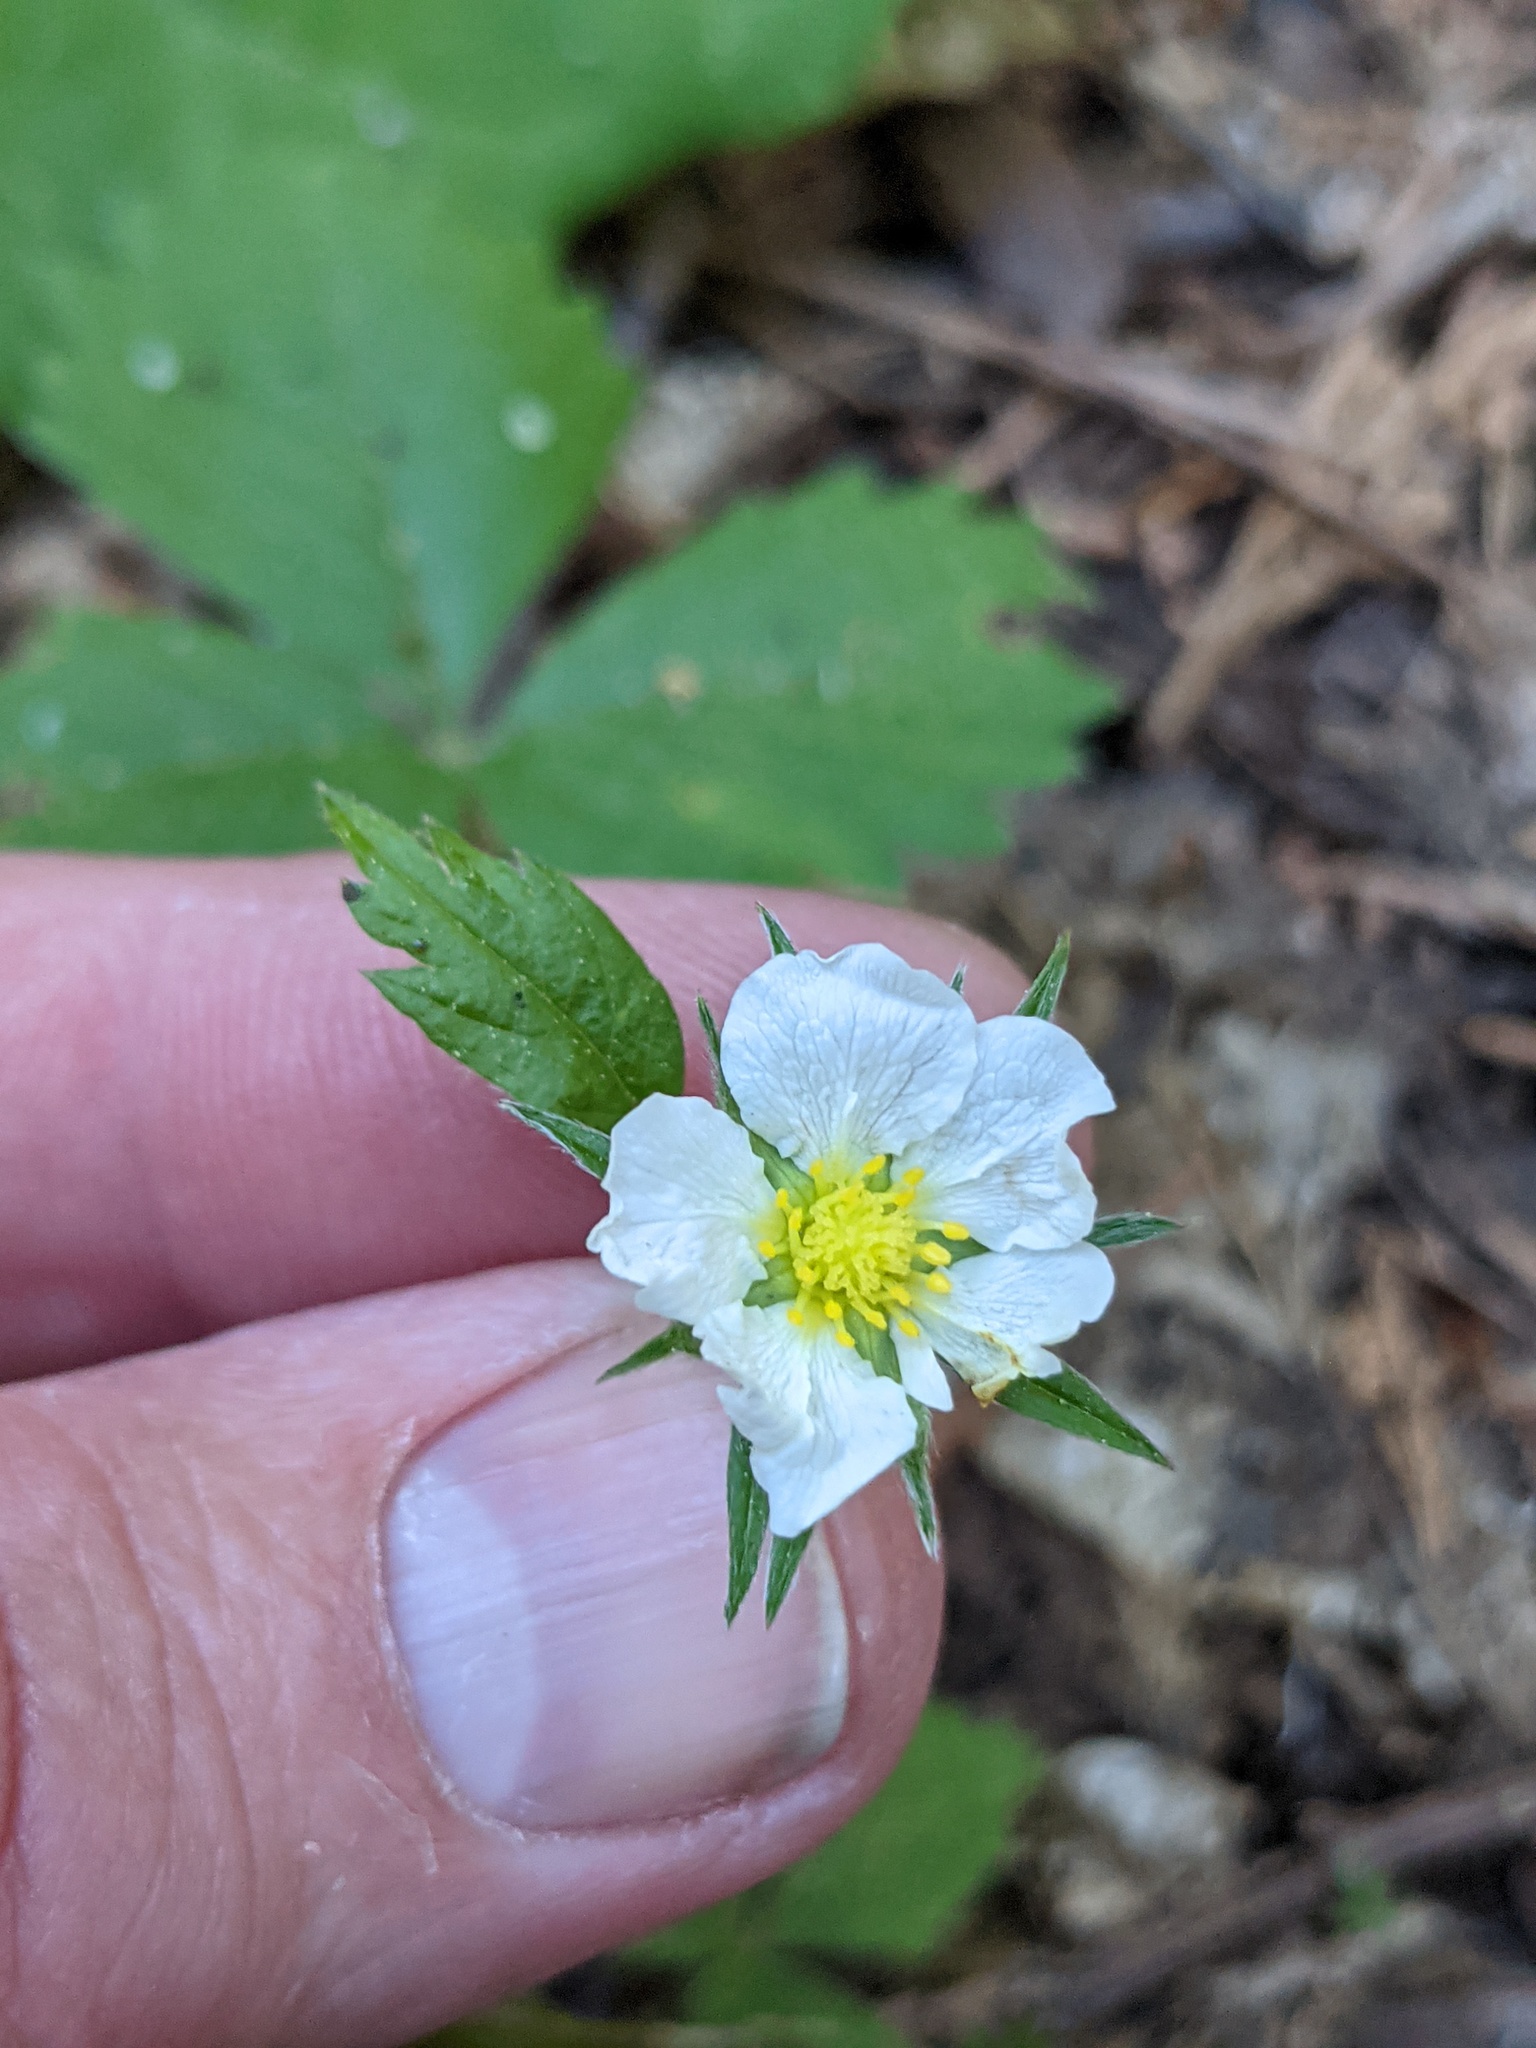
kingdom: Plantae
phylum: Tracheophyta
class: Magnoliopsida
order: Rosales
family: Rosaceae
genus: Fragaria
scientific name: Fragaria vesca
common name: Wild strawberry
